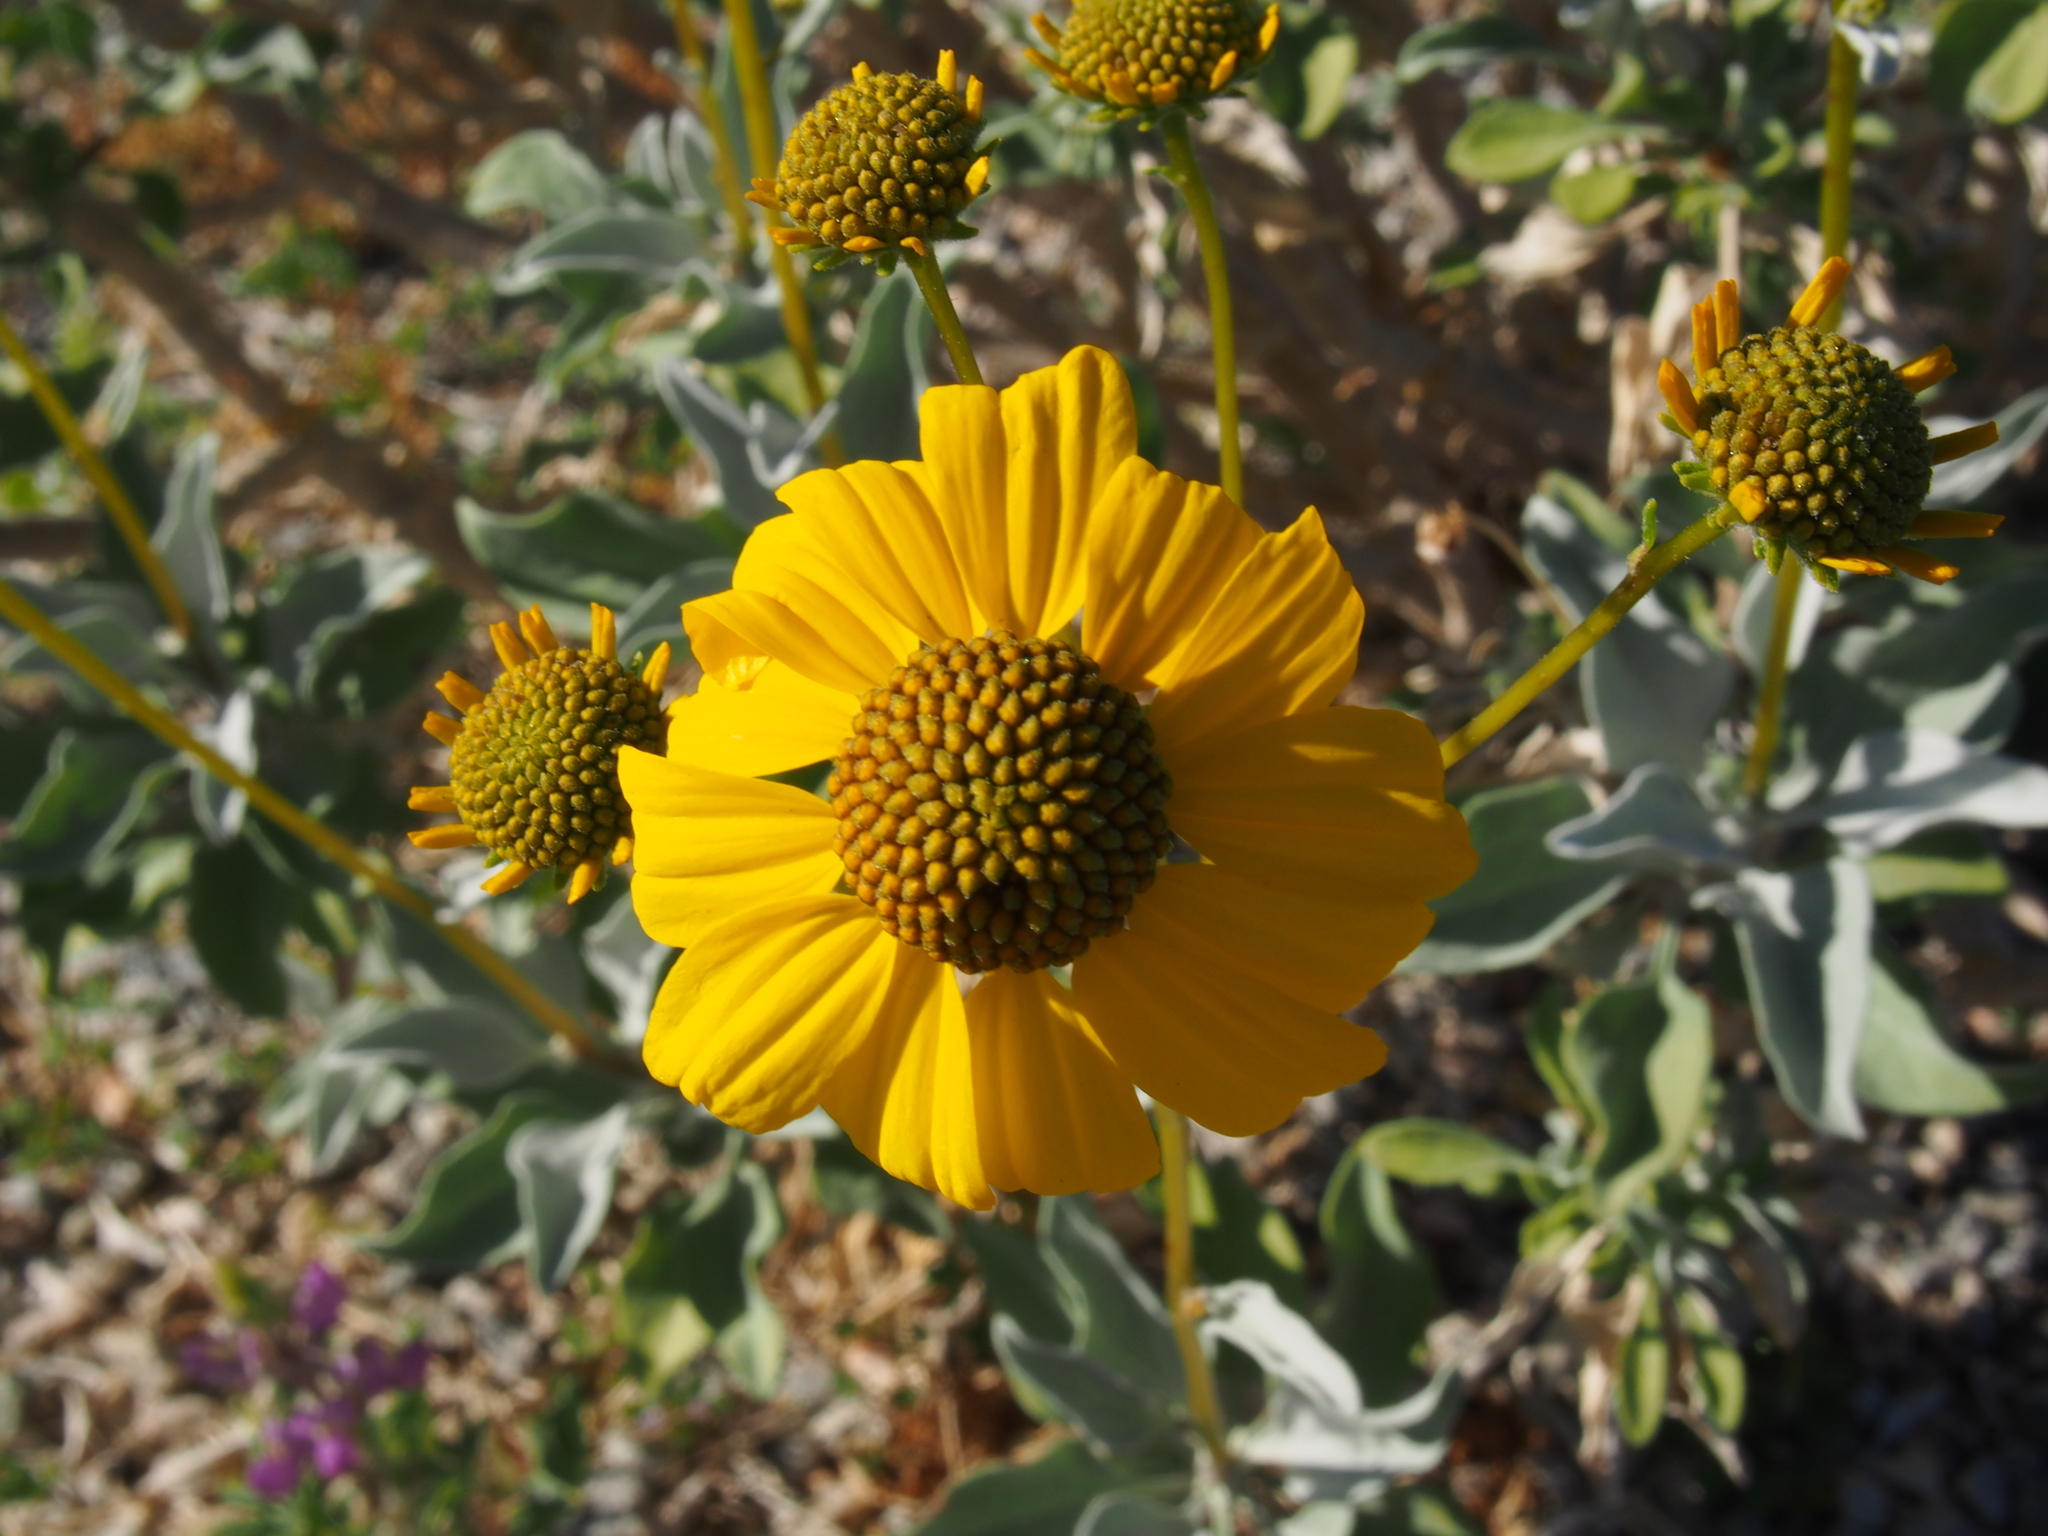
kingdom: Plantae
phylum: Tracheophyta
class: Magnoliopsida
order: Asterales
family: Asteraceae
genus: Encelia
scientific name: Encelia farinosa
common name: Brittlebush
